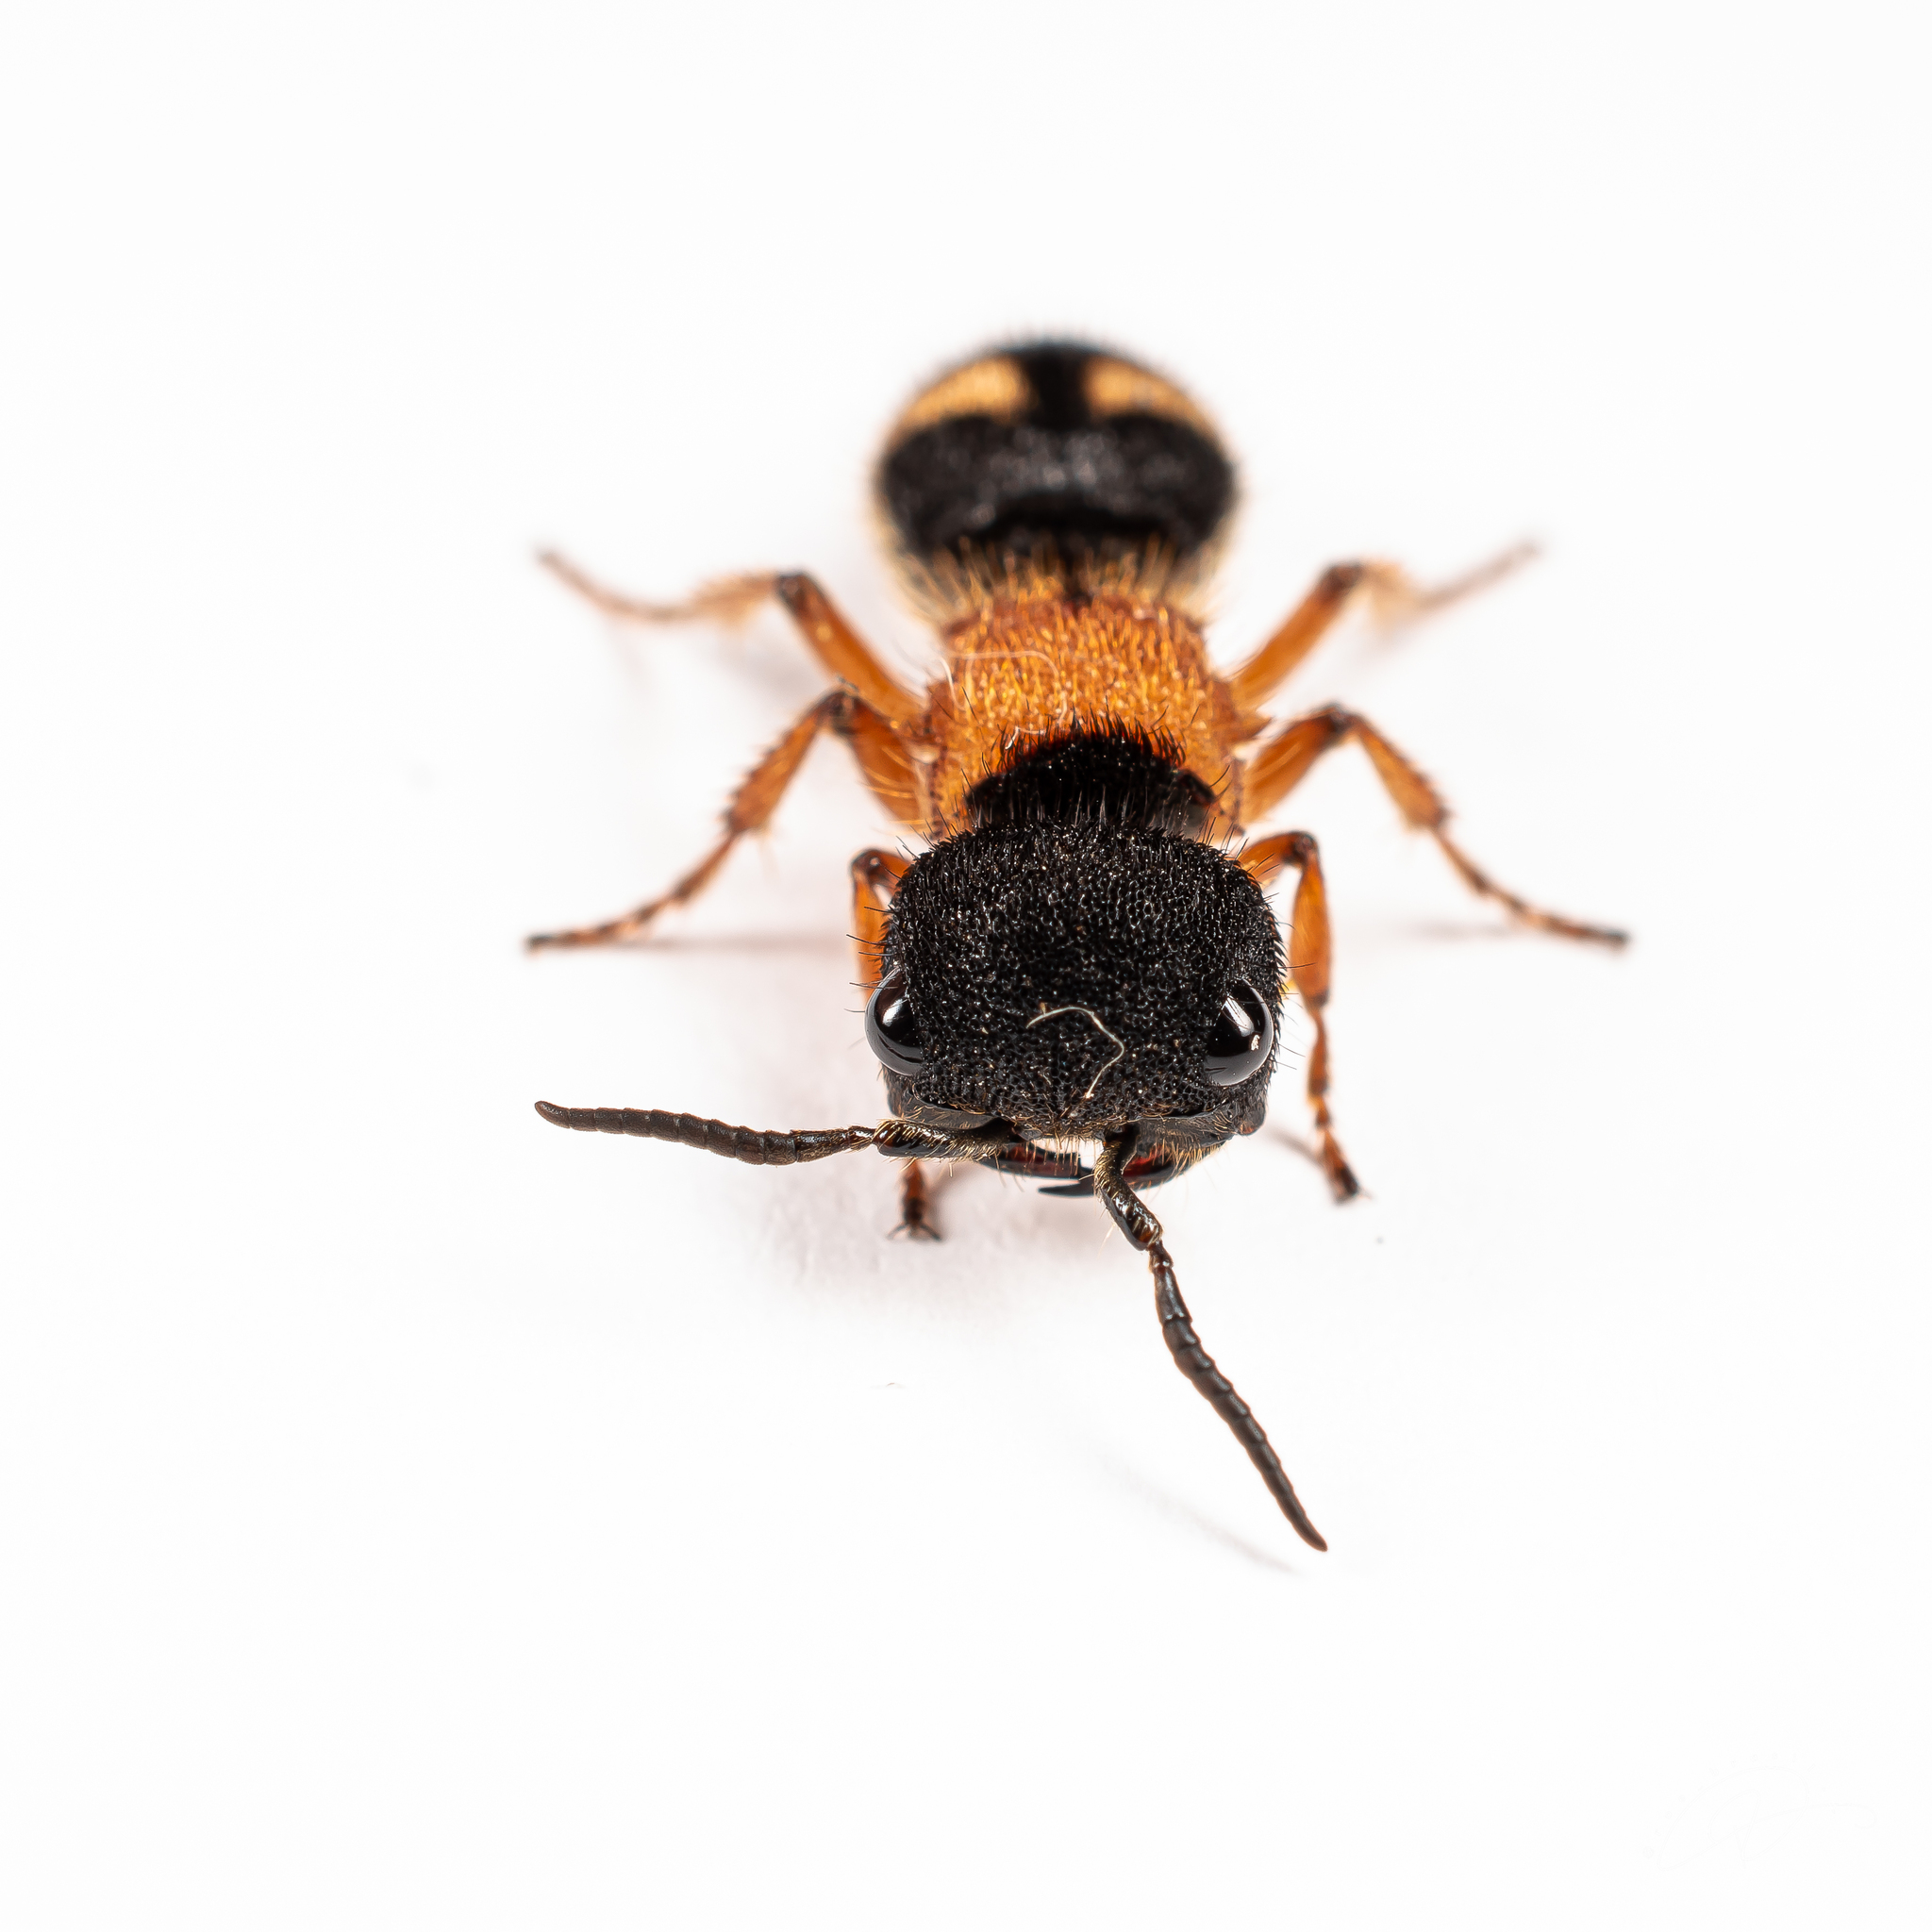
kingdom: Animalia
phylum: Arthropoda
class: Insecta
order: Hymenoptera
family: Mutillidae
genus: Pseudomethoca
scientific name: Pseudomethoca
